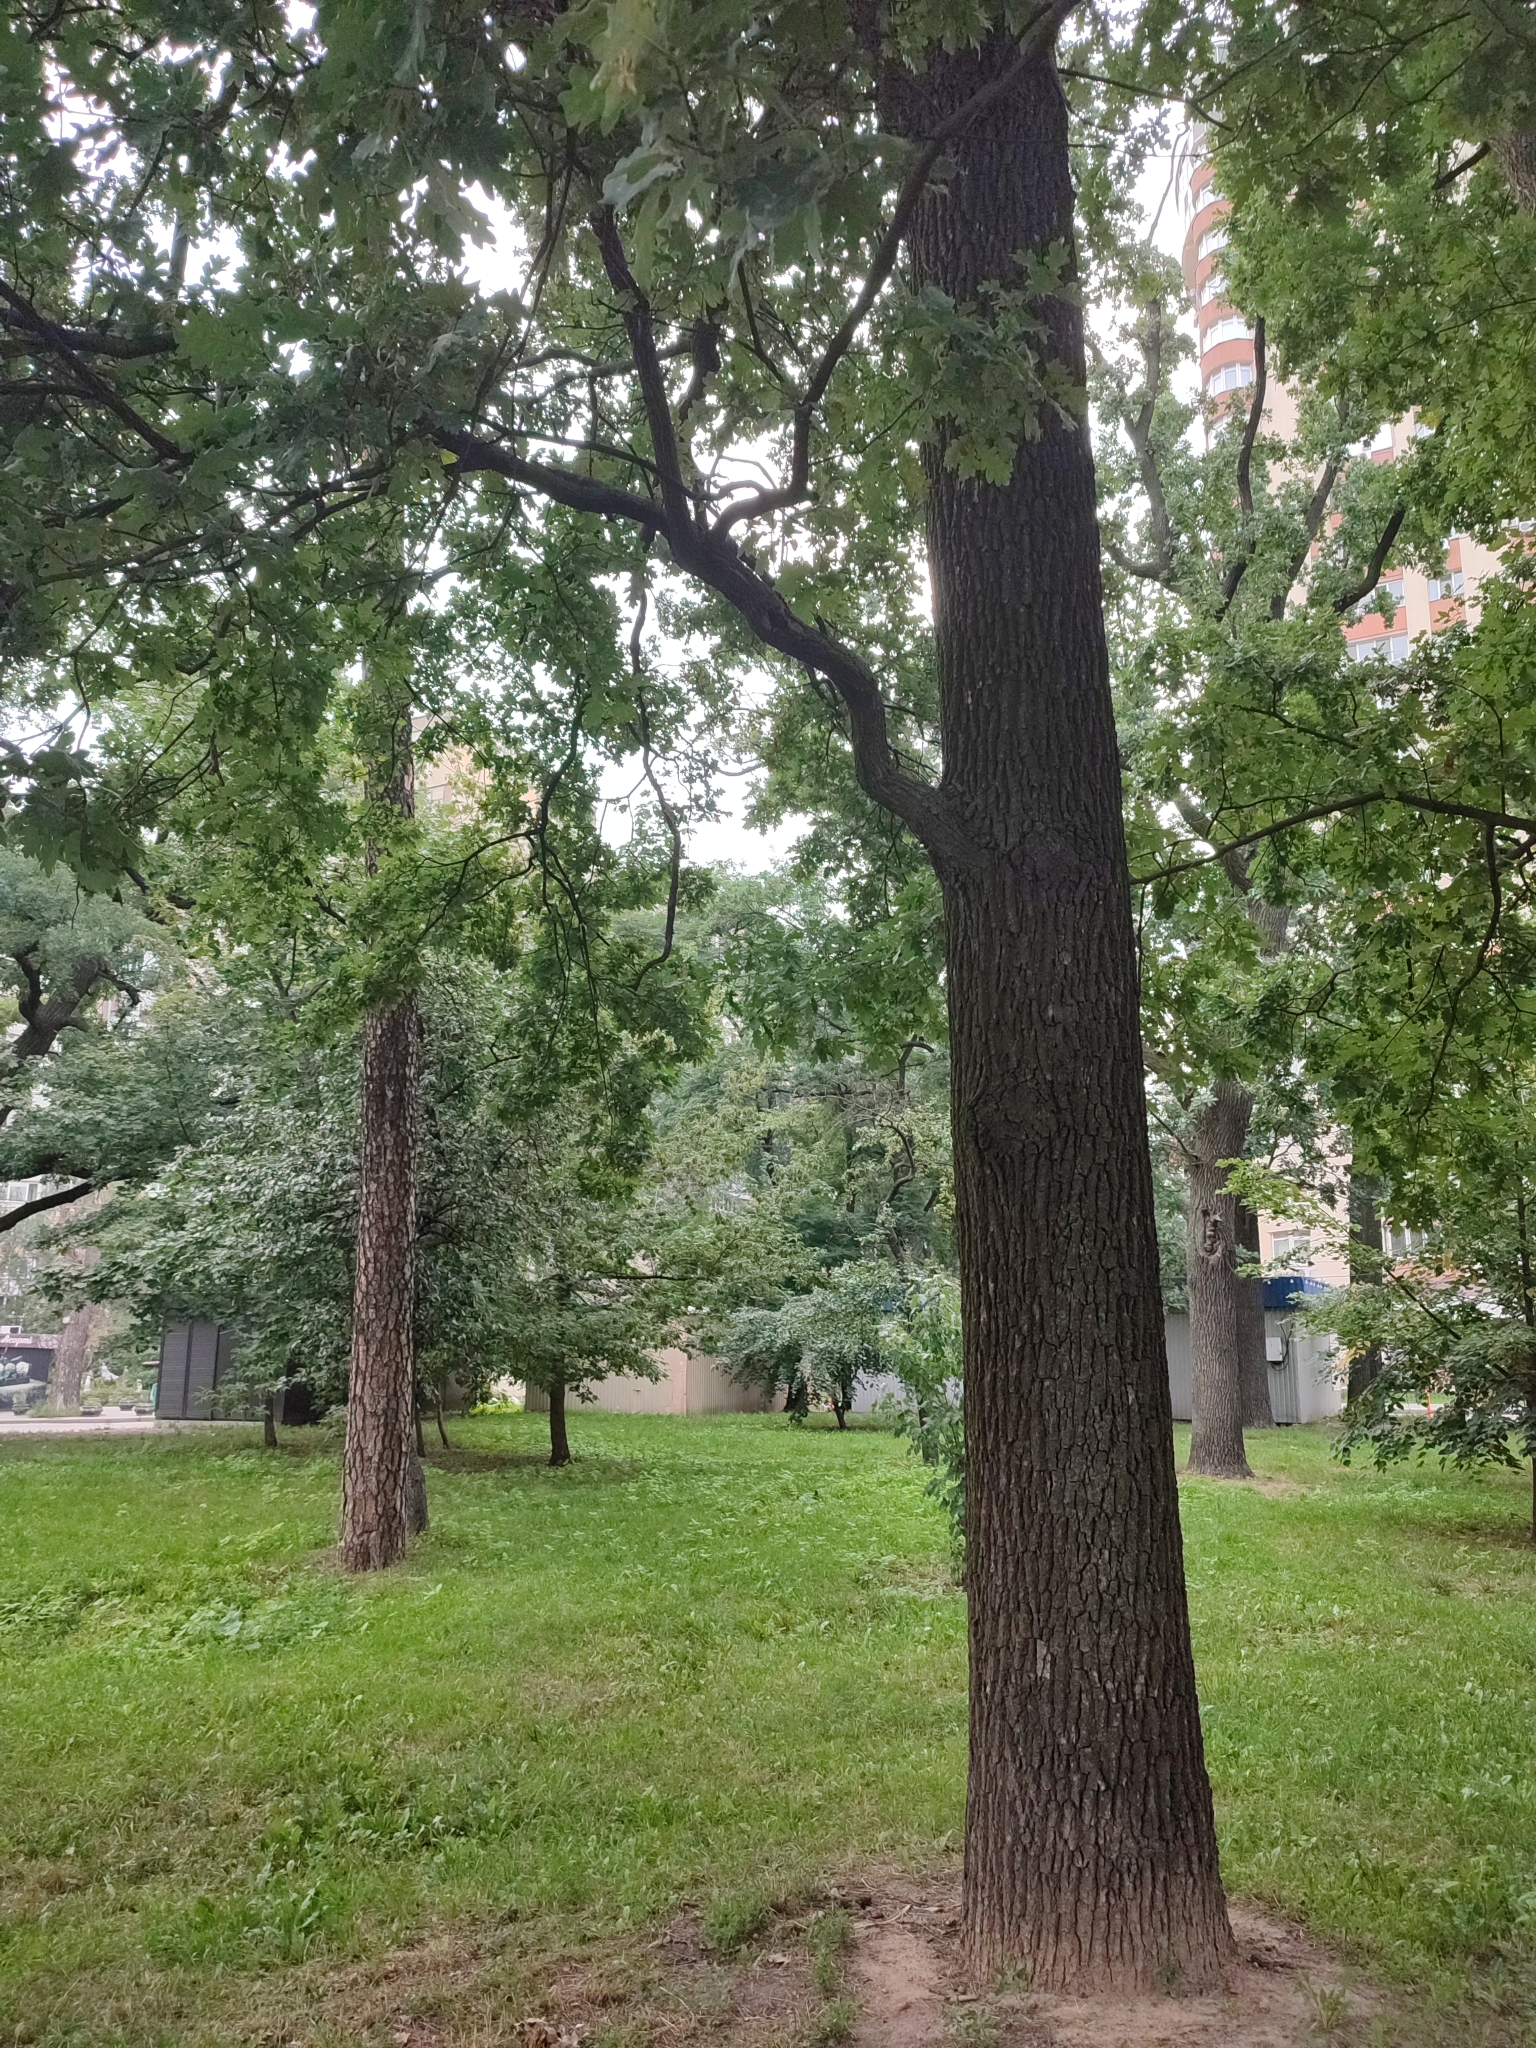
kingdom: Plantae
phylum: Tracheophyta
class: Magnoliopsida
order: Fagales
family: Fagaceae
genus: Quercus
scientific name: Quercus robur
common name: Pedunculate oak
